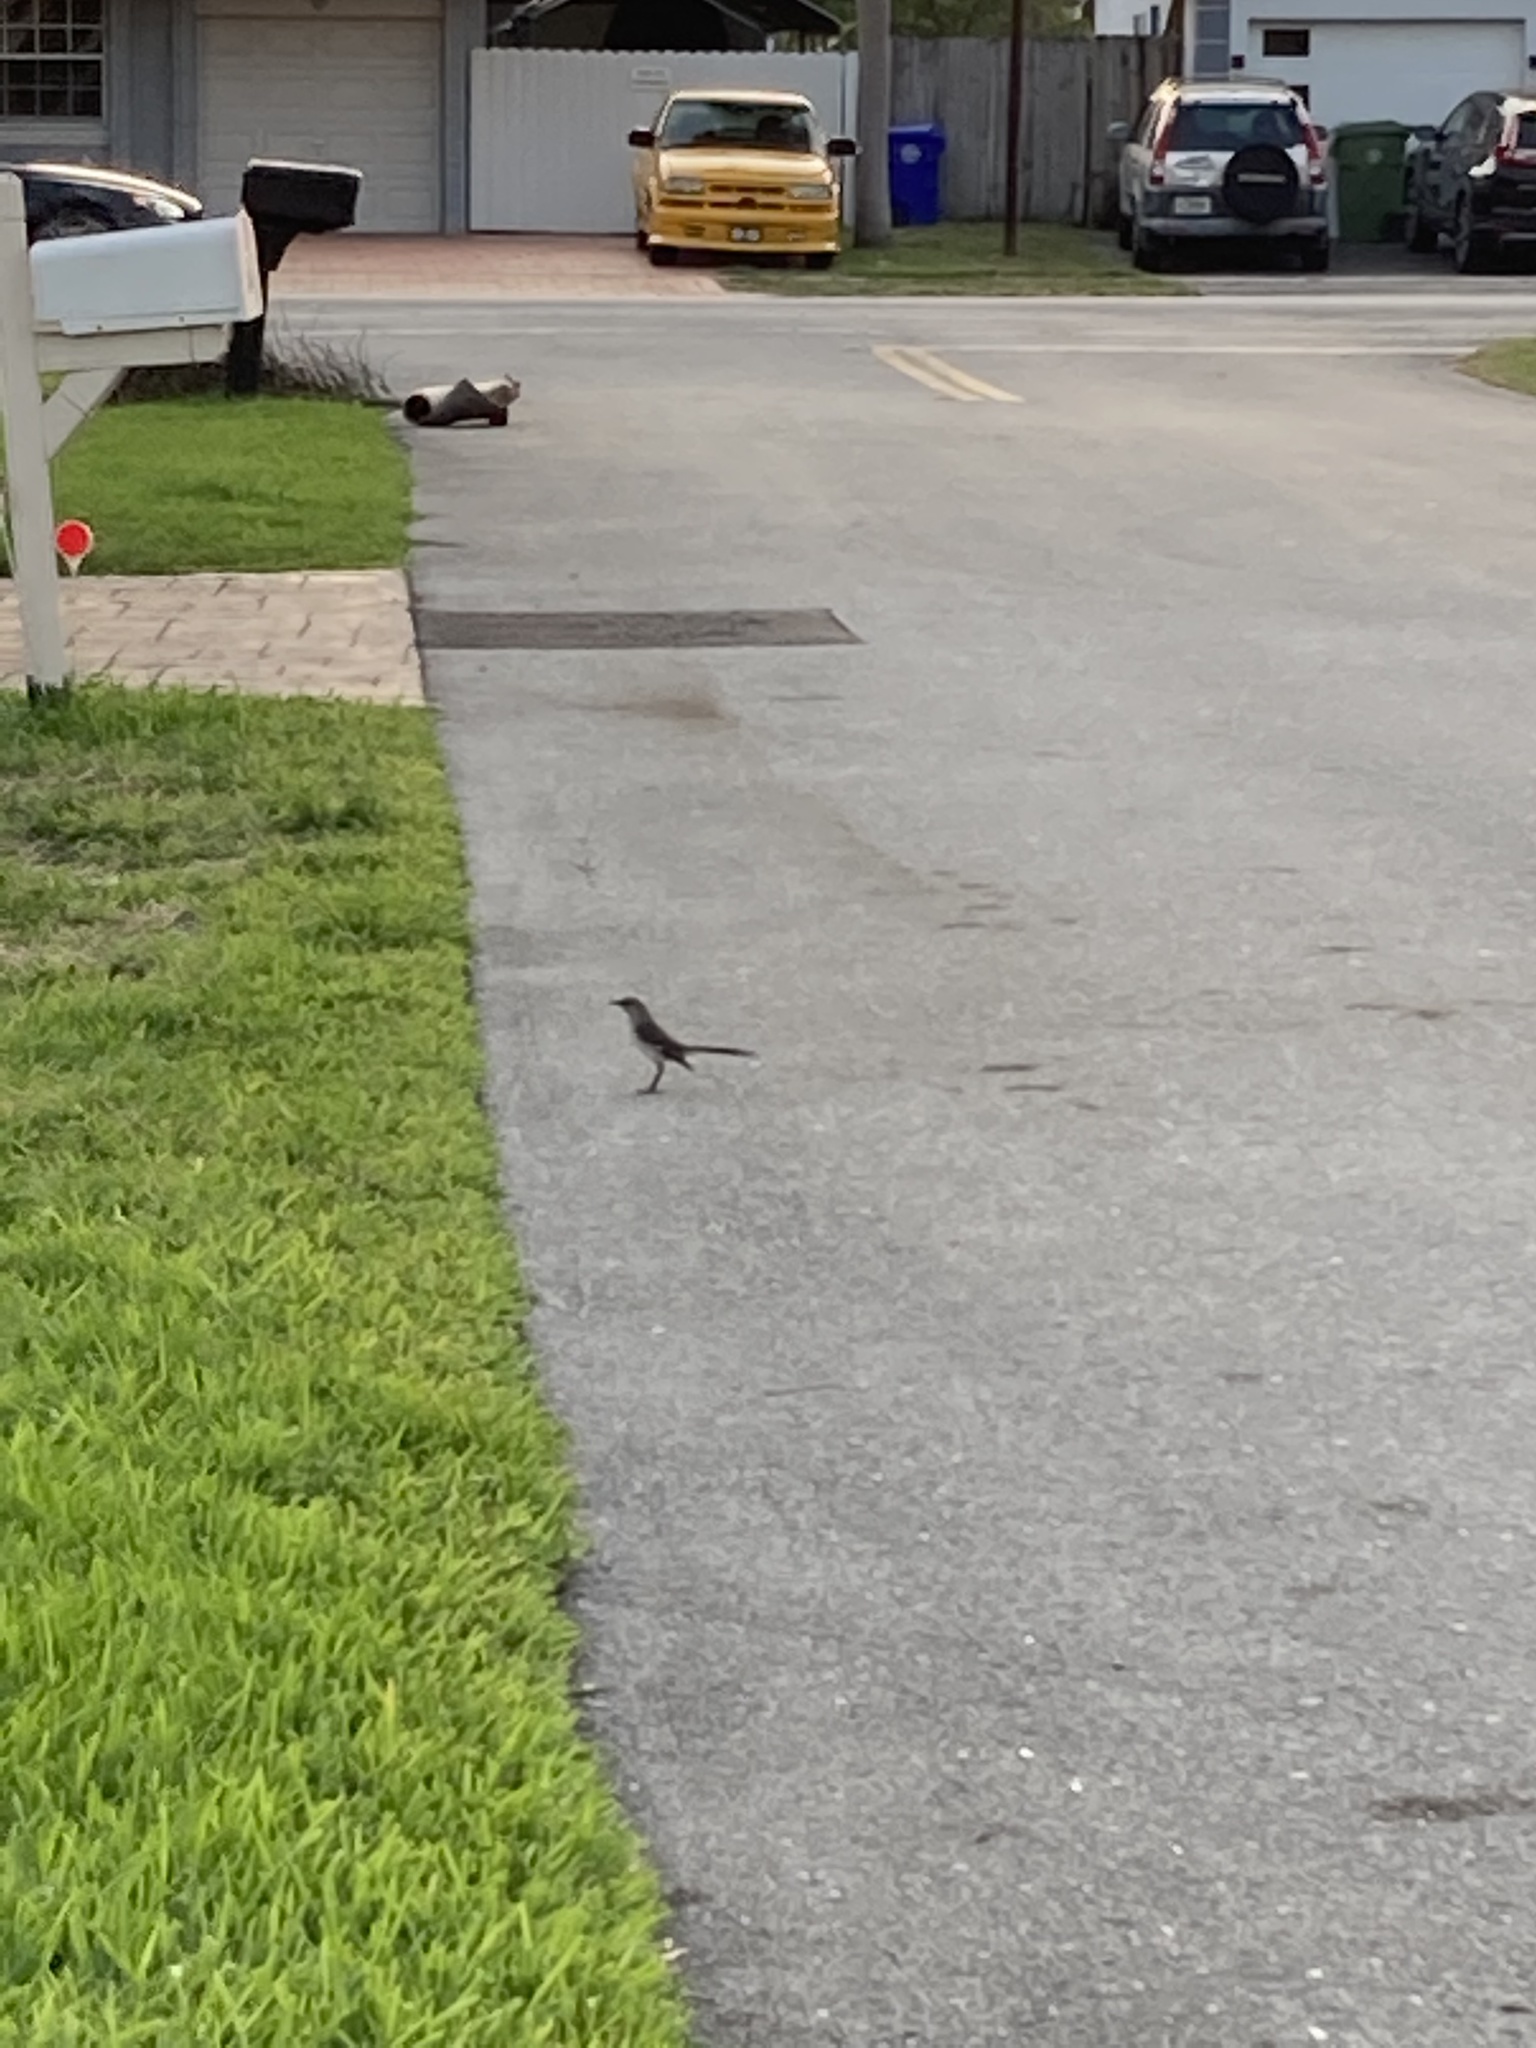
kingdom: Animalia
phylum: Chordata
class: Aves
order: Passeriformes
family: Mimidae
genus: Mimus
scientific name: Mimus polyglottos
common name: Northern mockingbird
